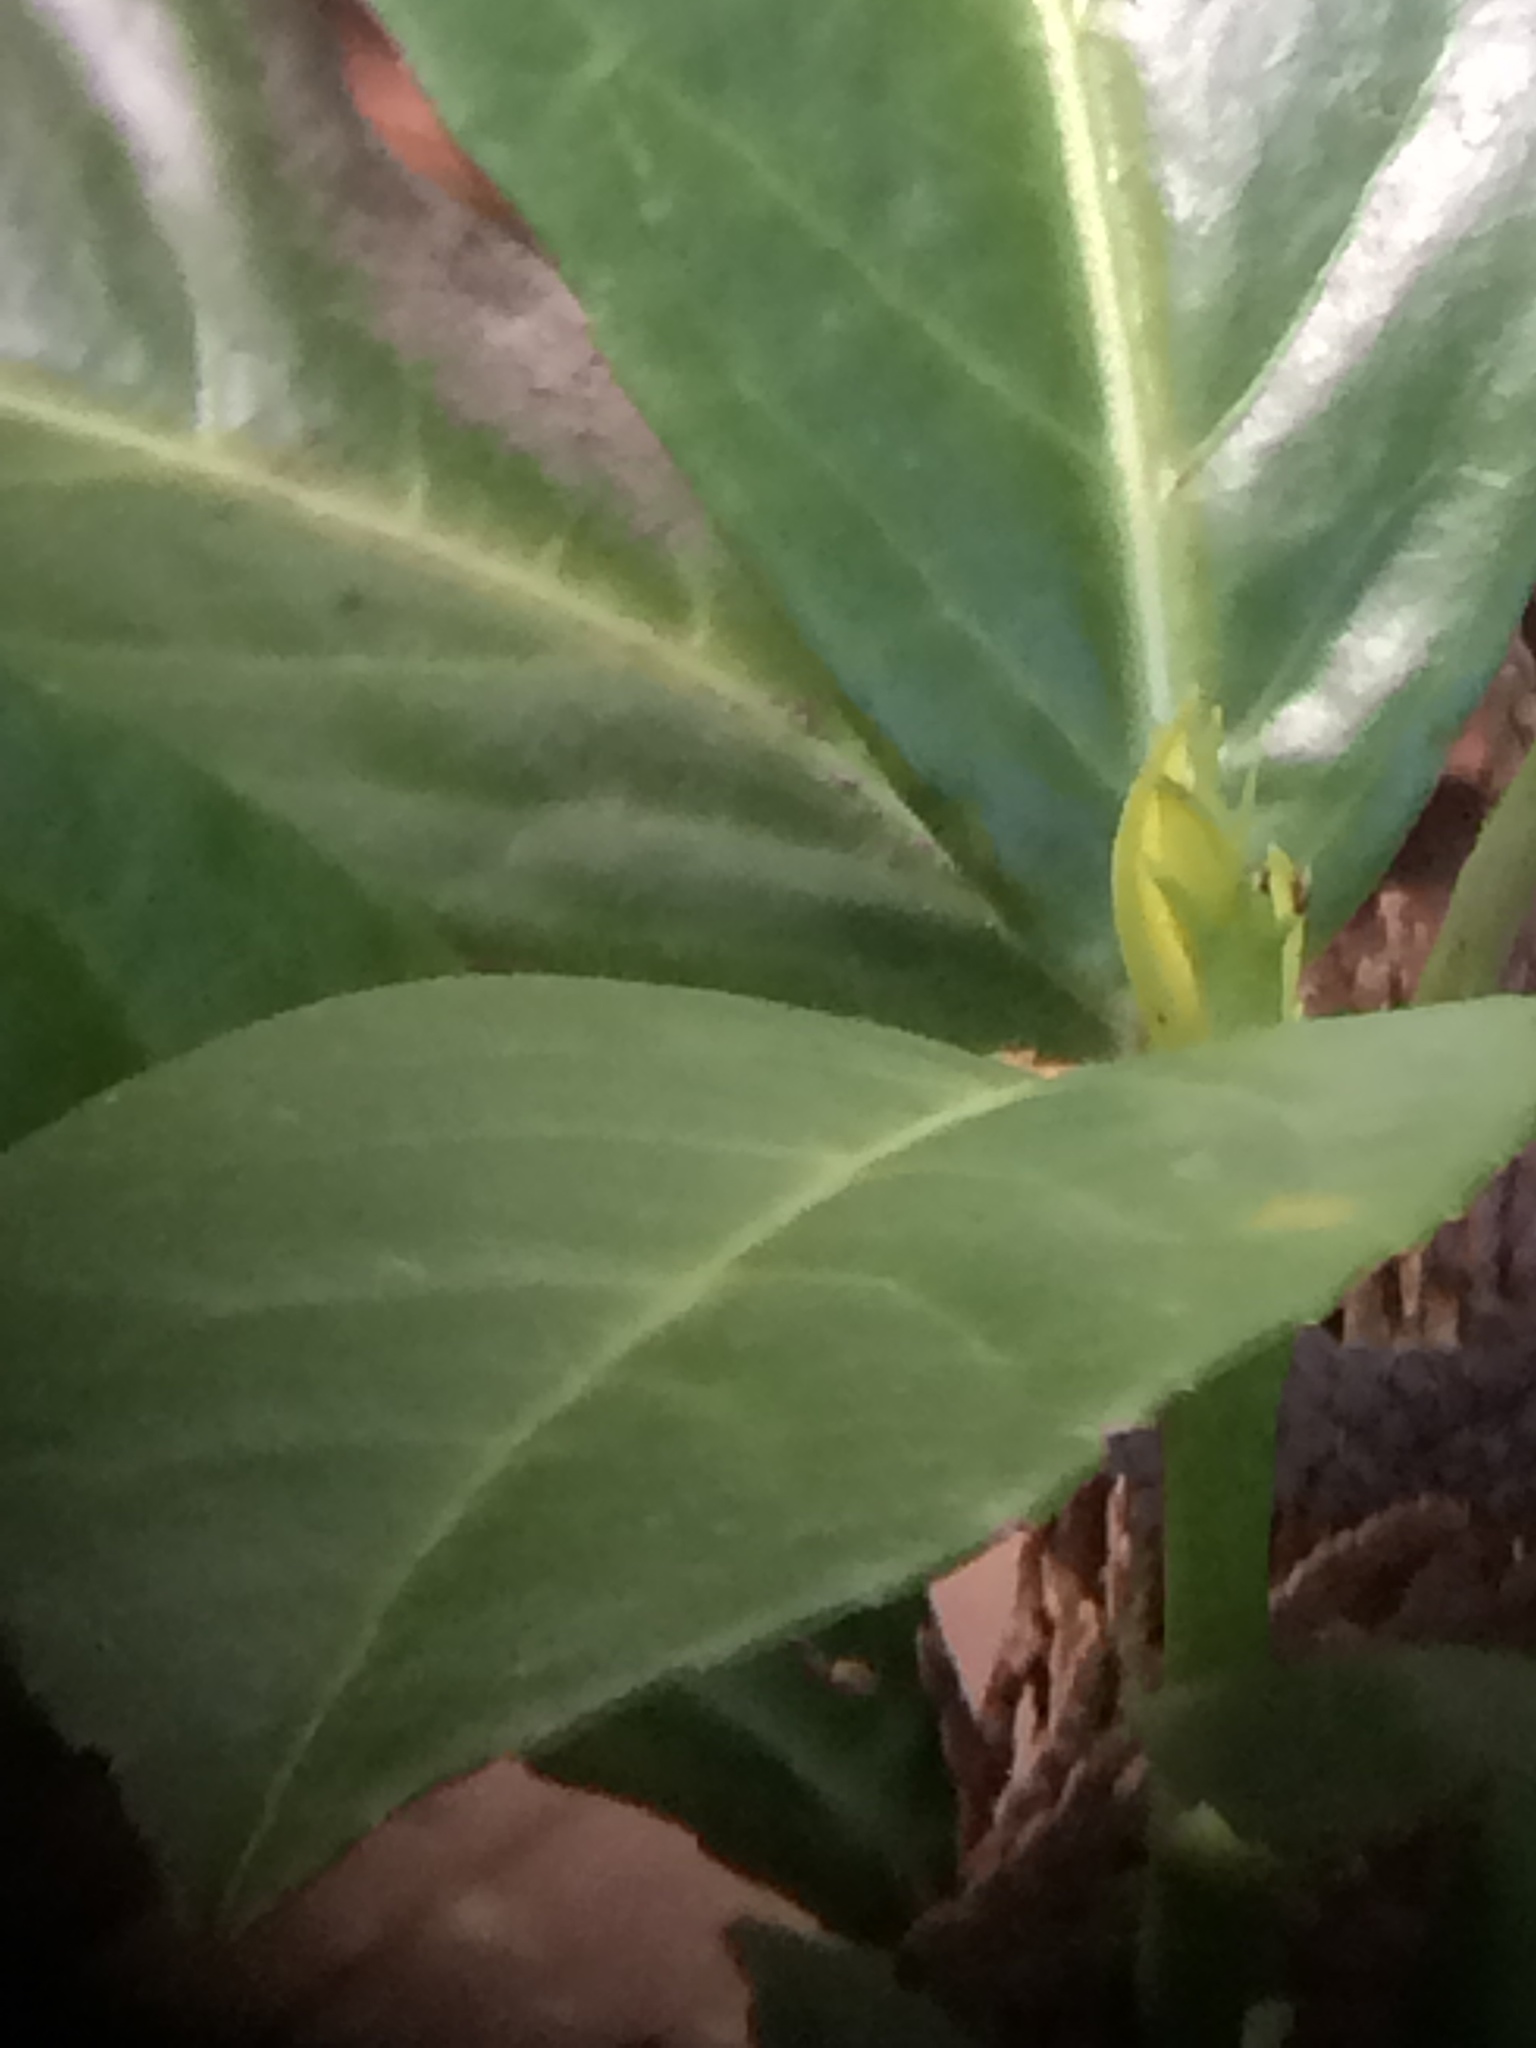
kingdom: Plantae
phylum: Tracheophyta
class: Magnoliopsida
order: Rosales
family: Rosaceae
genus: Prunus
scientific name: Prunus laurocerasus
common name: Cherry laurel
